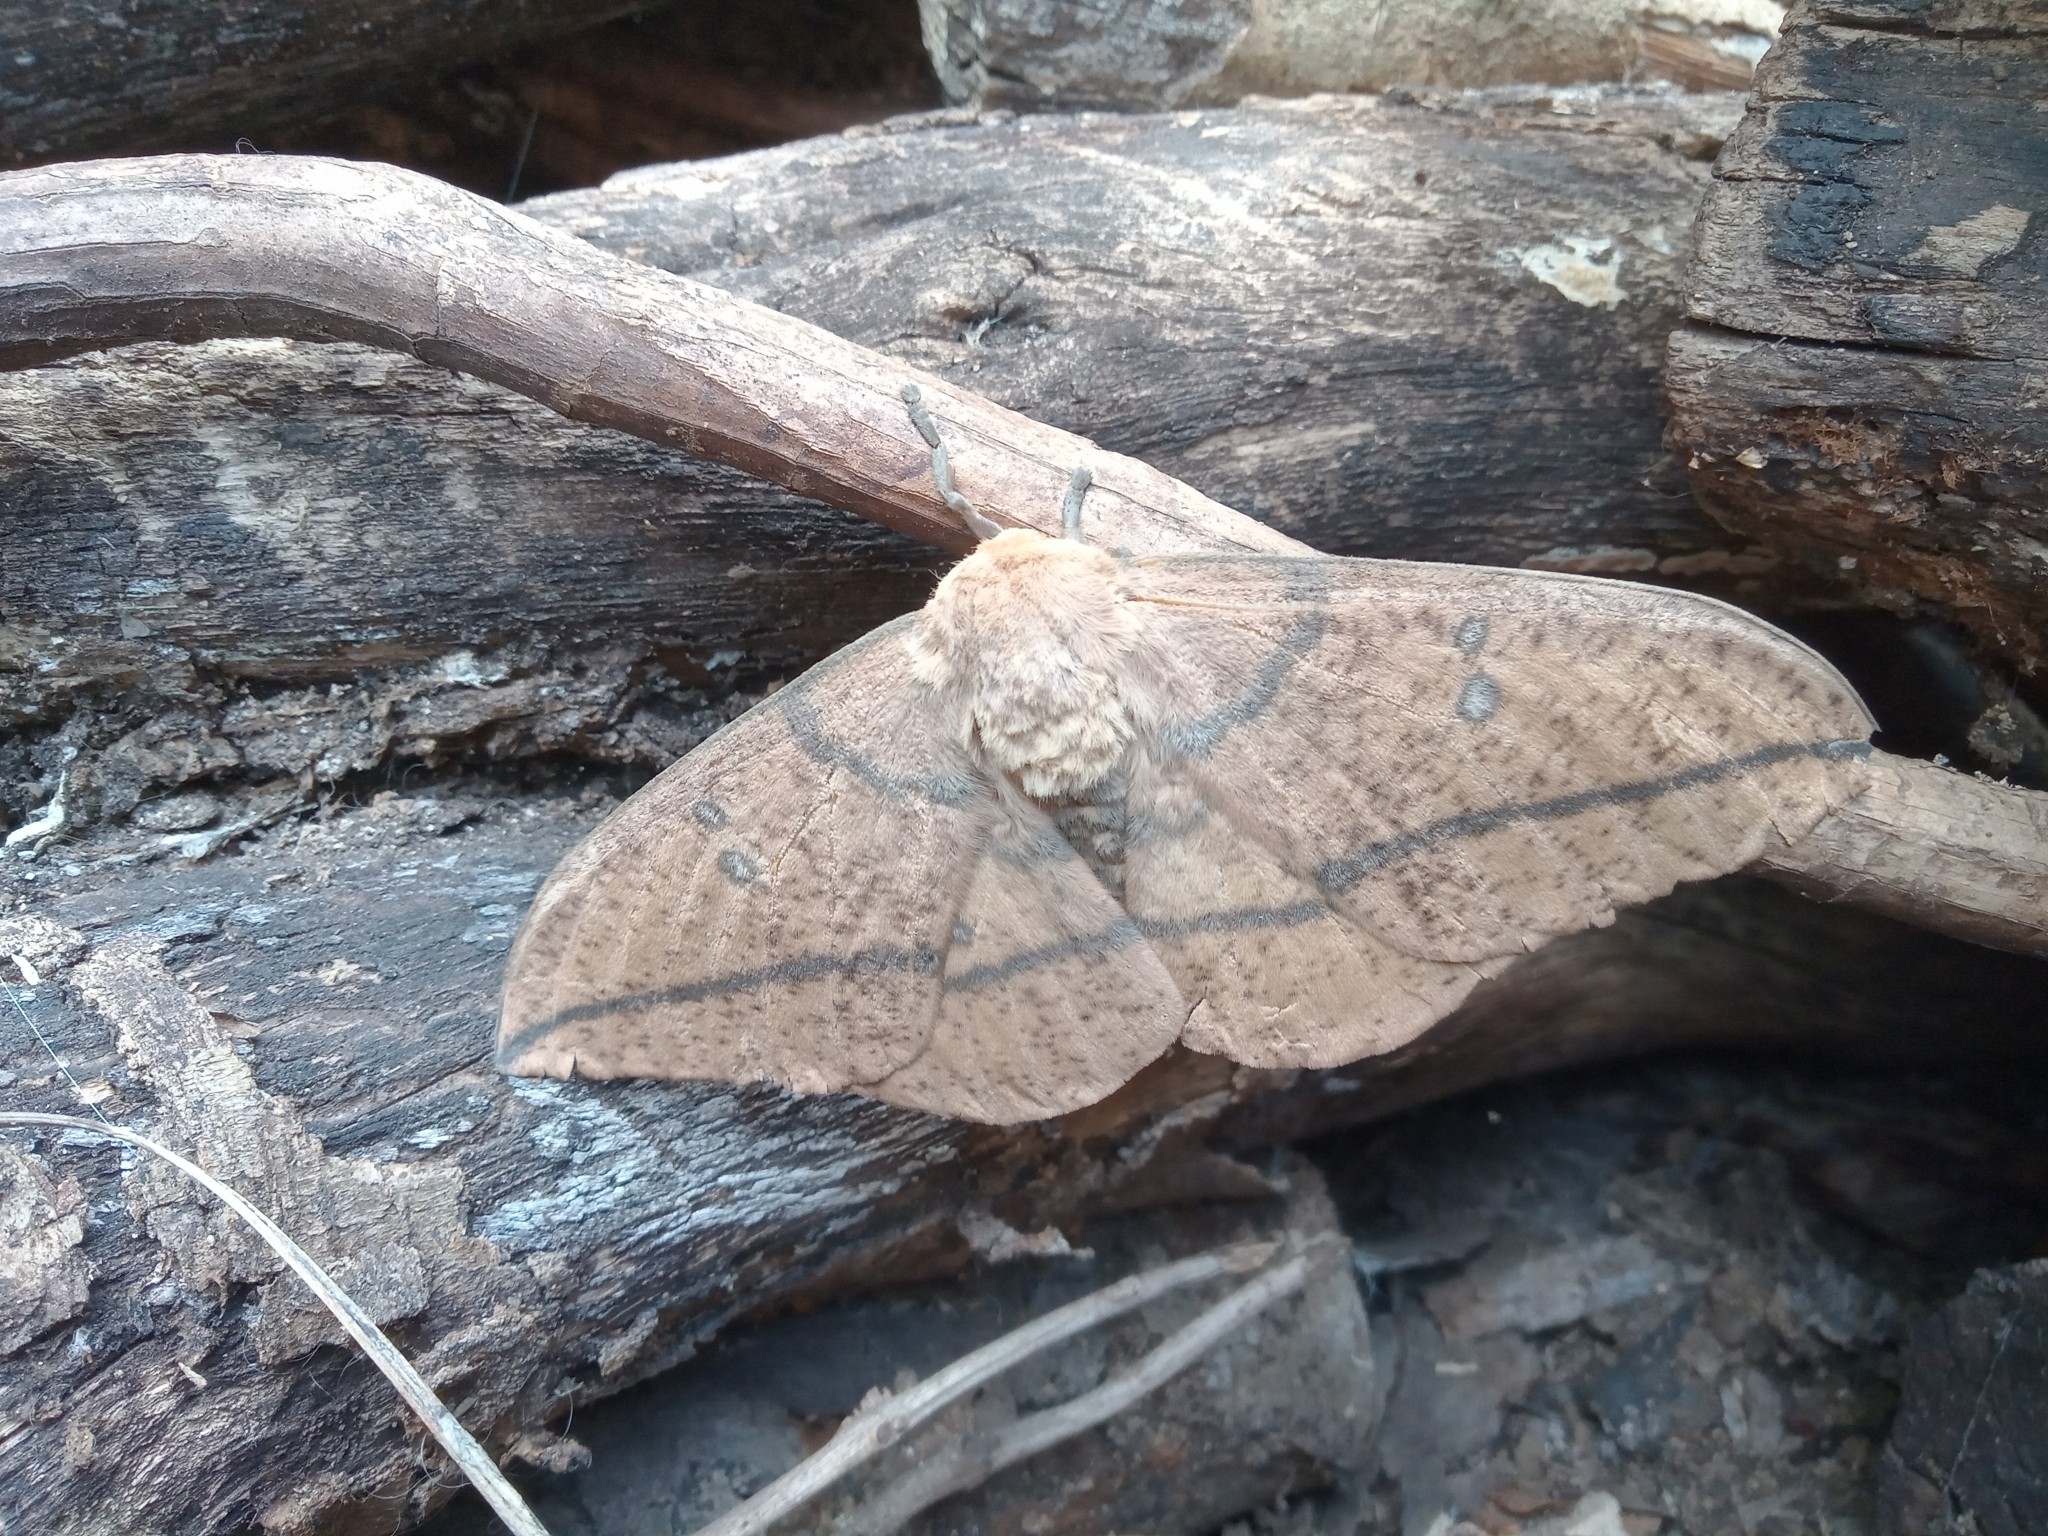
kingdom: Animalia
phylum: Arthropoda
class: Insecta
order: Lepidoptera
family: Saturniidae
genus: Eacles
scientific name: Eacles imperialis
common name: Imperial moth
